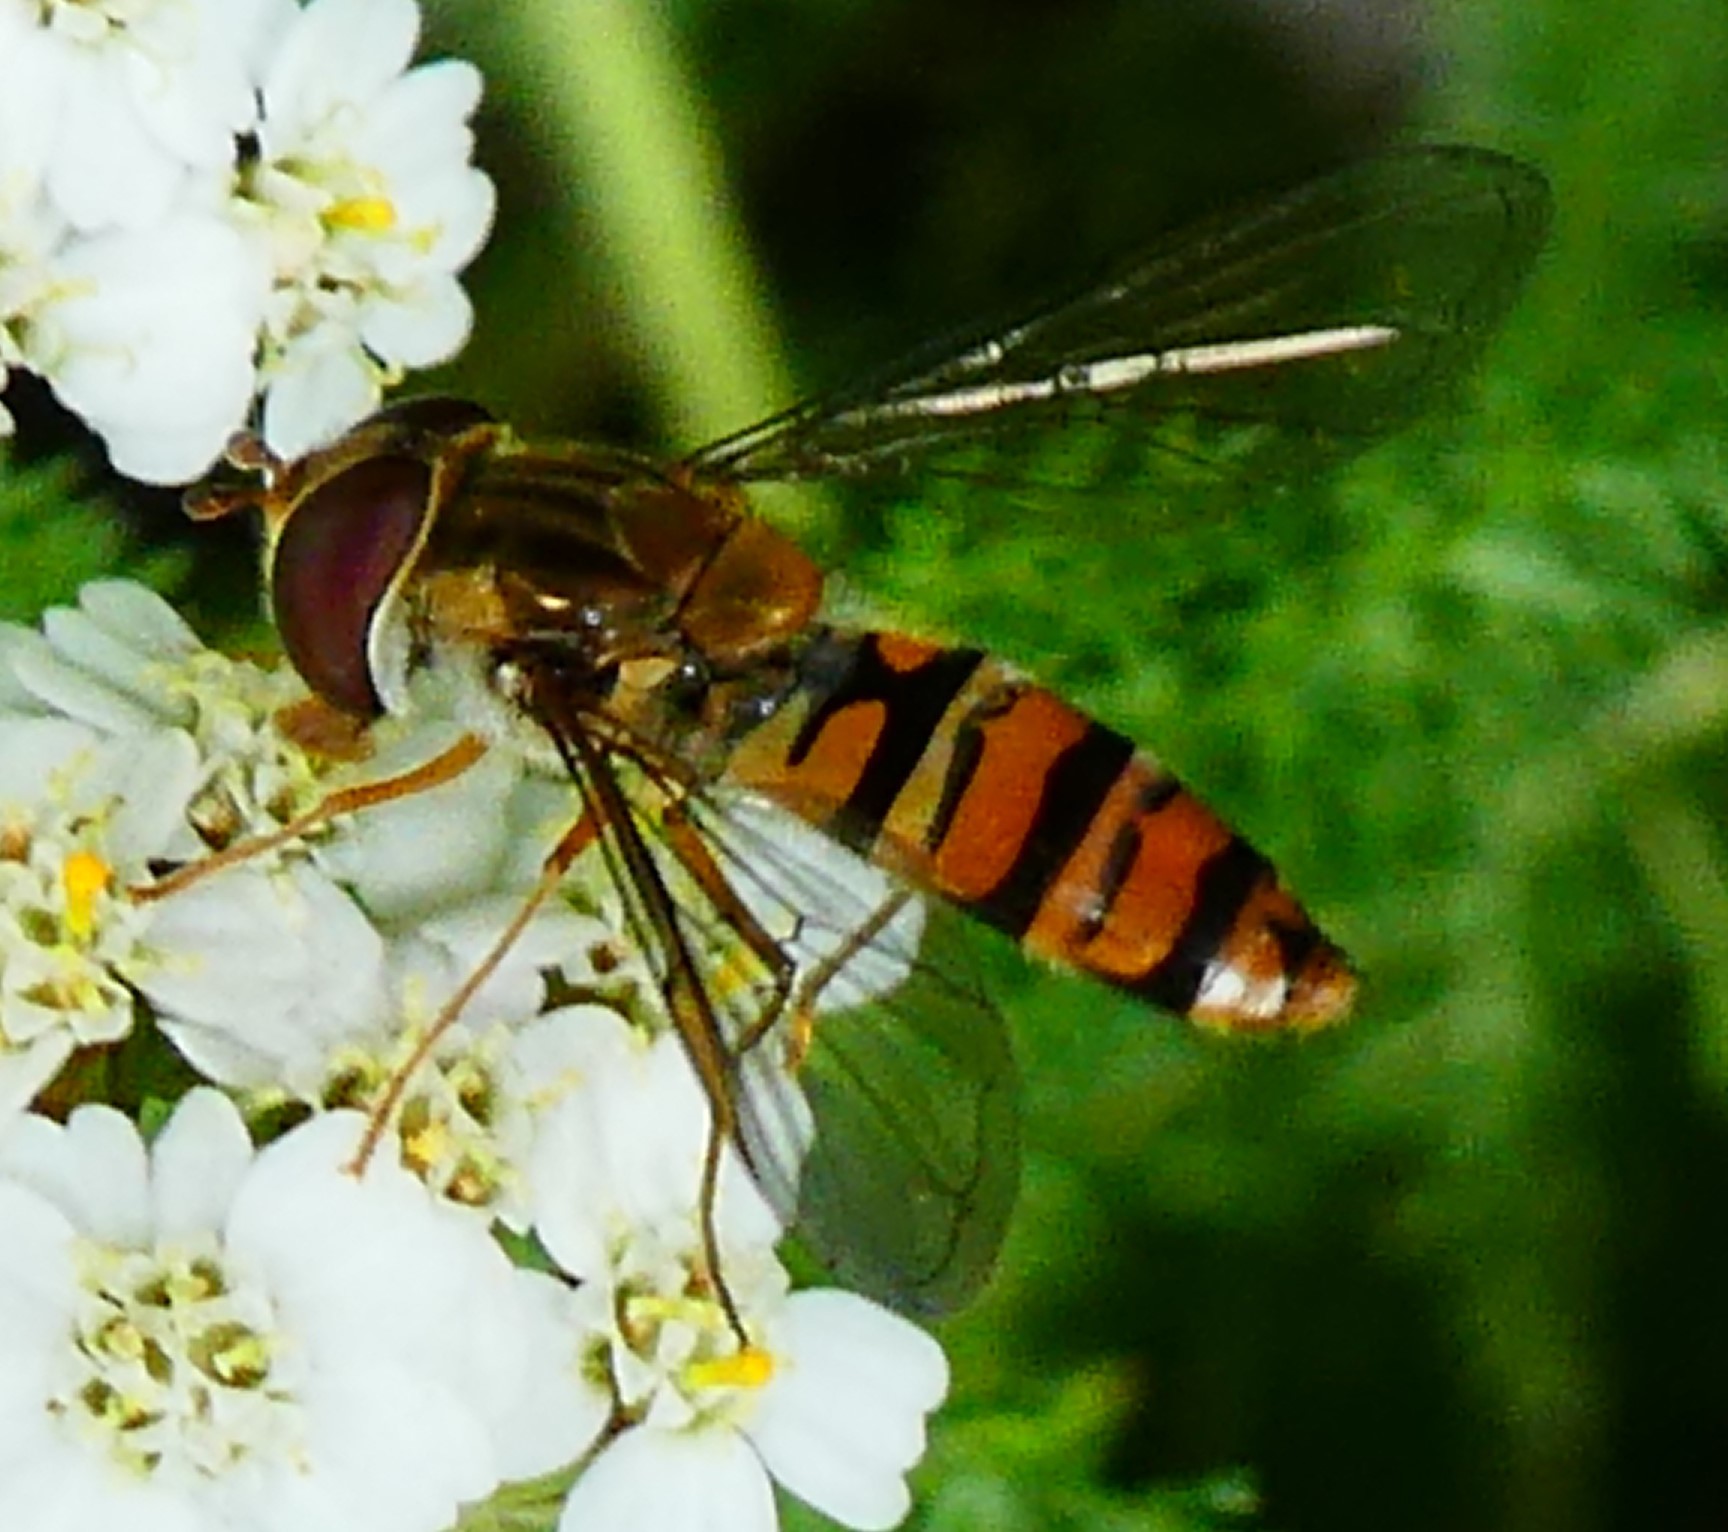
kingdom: Animalia
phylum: Arthropoda
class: Insecta
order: Diptera
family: Syrphidae
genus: Episyrphus
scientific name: Episyrphus balteatus
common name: Marmalade hoverfly
